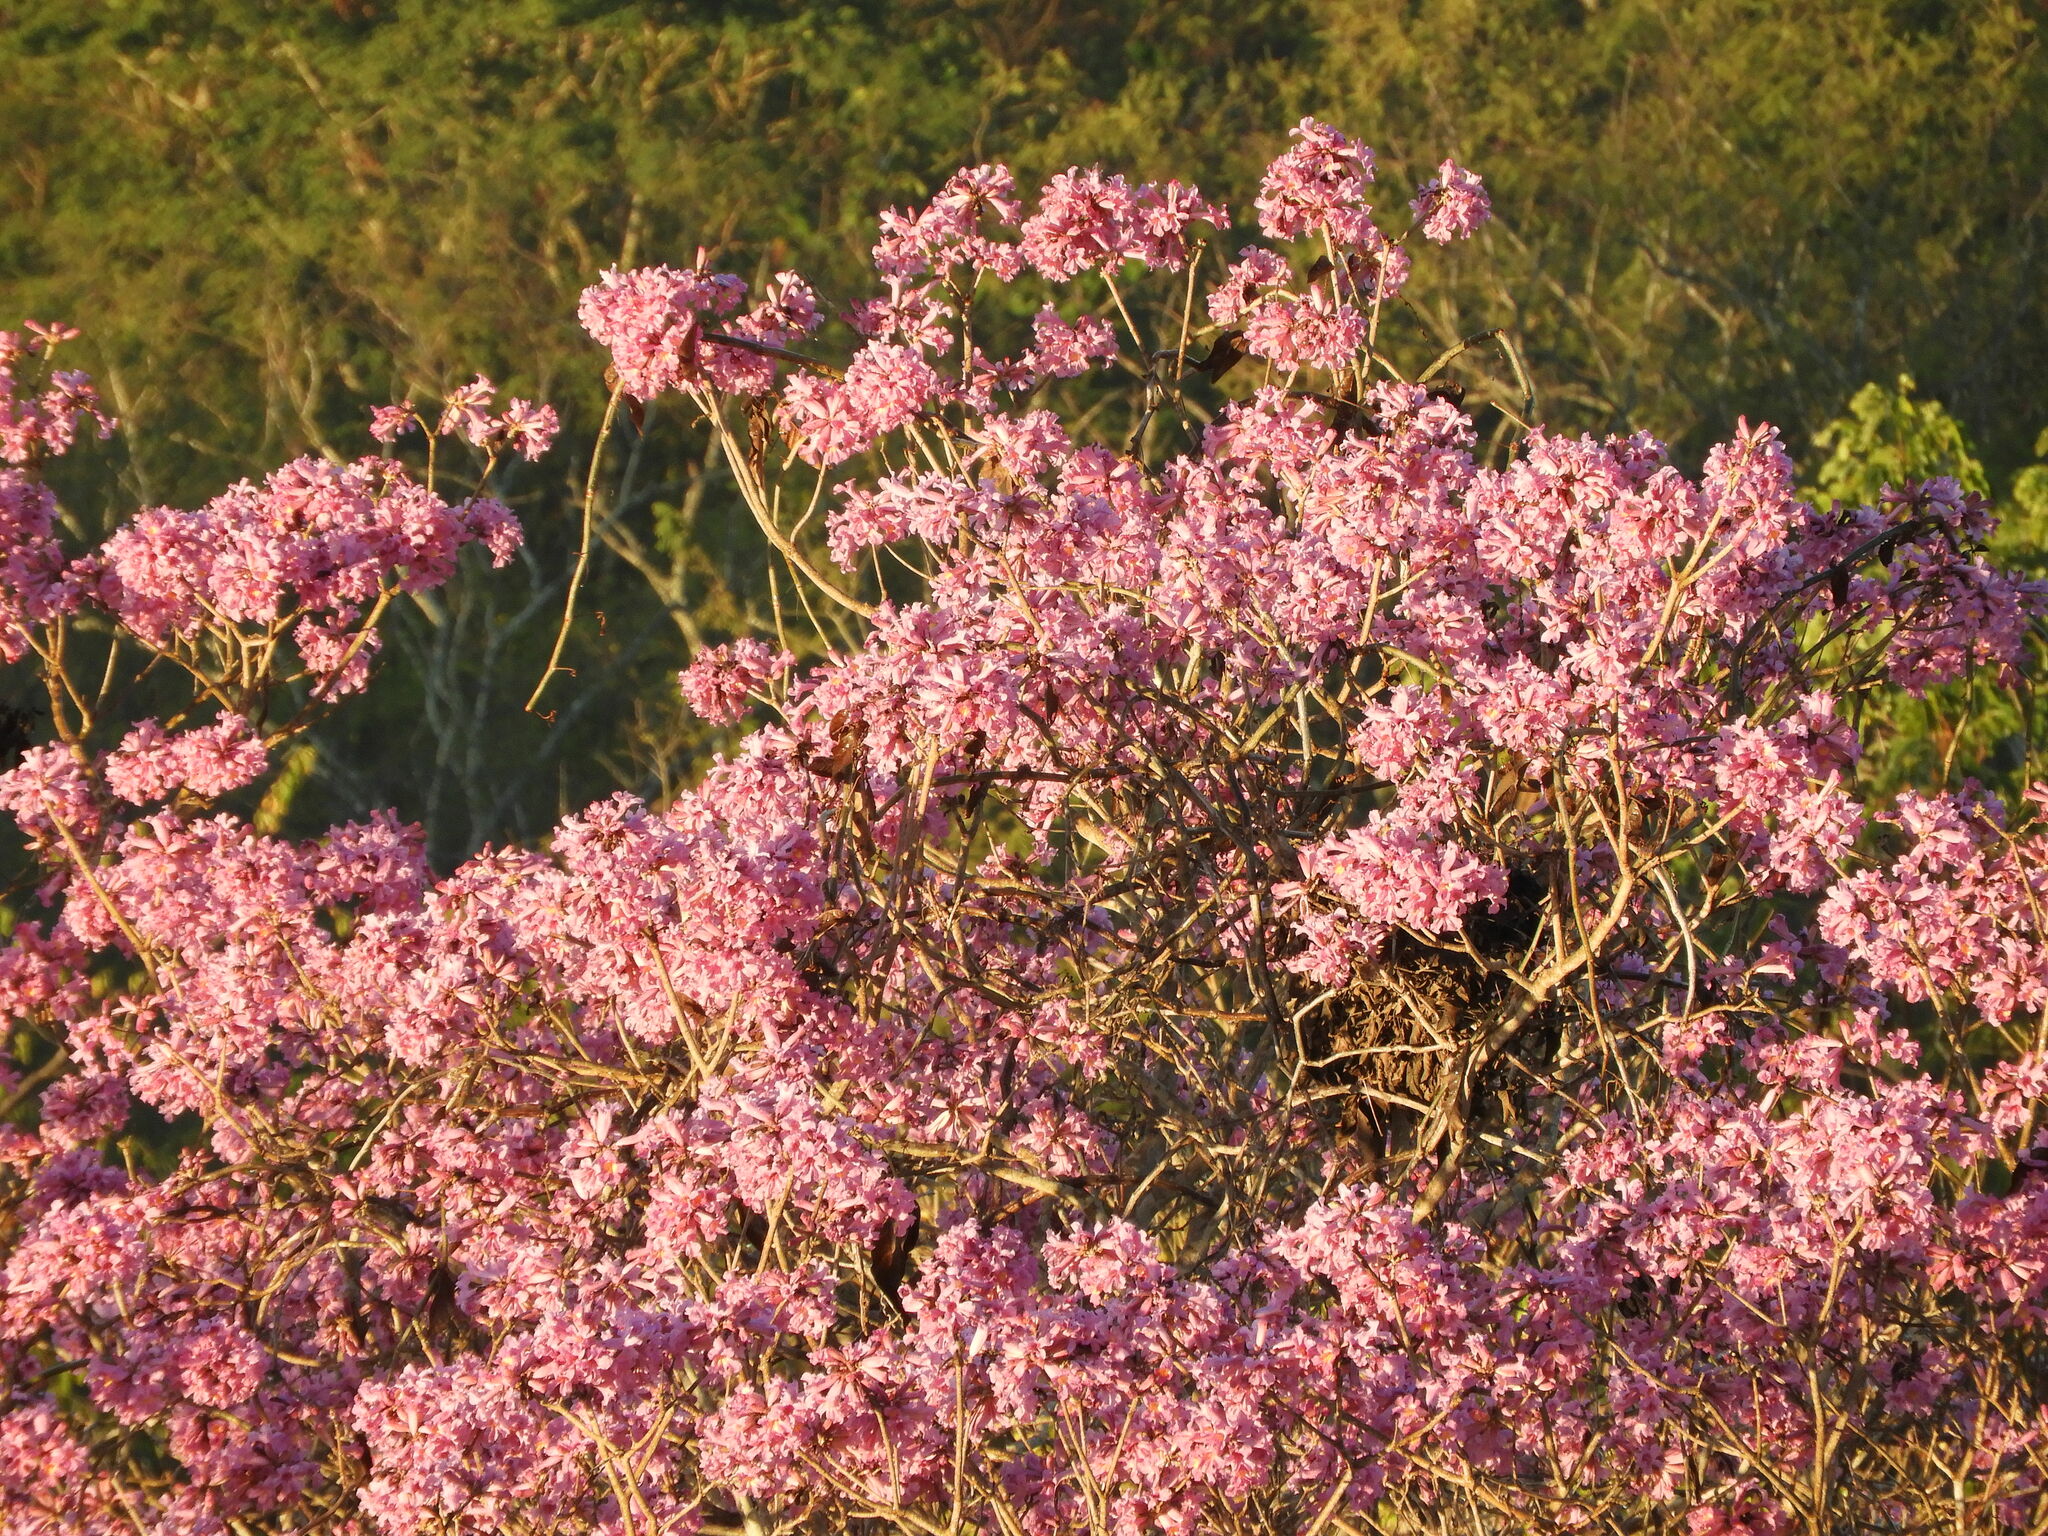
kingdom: Plantae
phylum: Tracheophyta
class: Magnoliopsida
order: Lamiales
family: Bignoniaceae
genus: Handroanthus
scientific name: Handroanthus impetiginosum
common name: Pink trumpet tree
